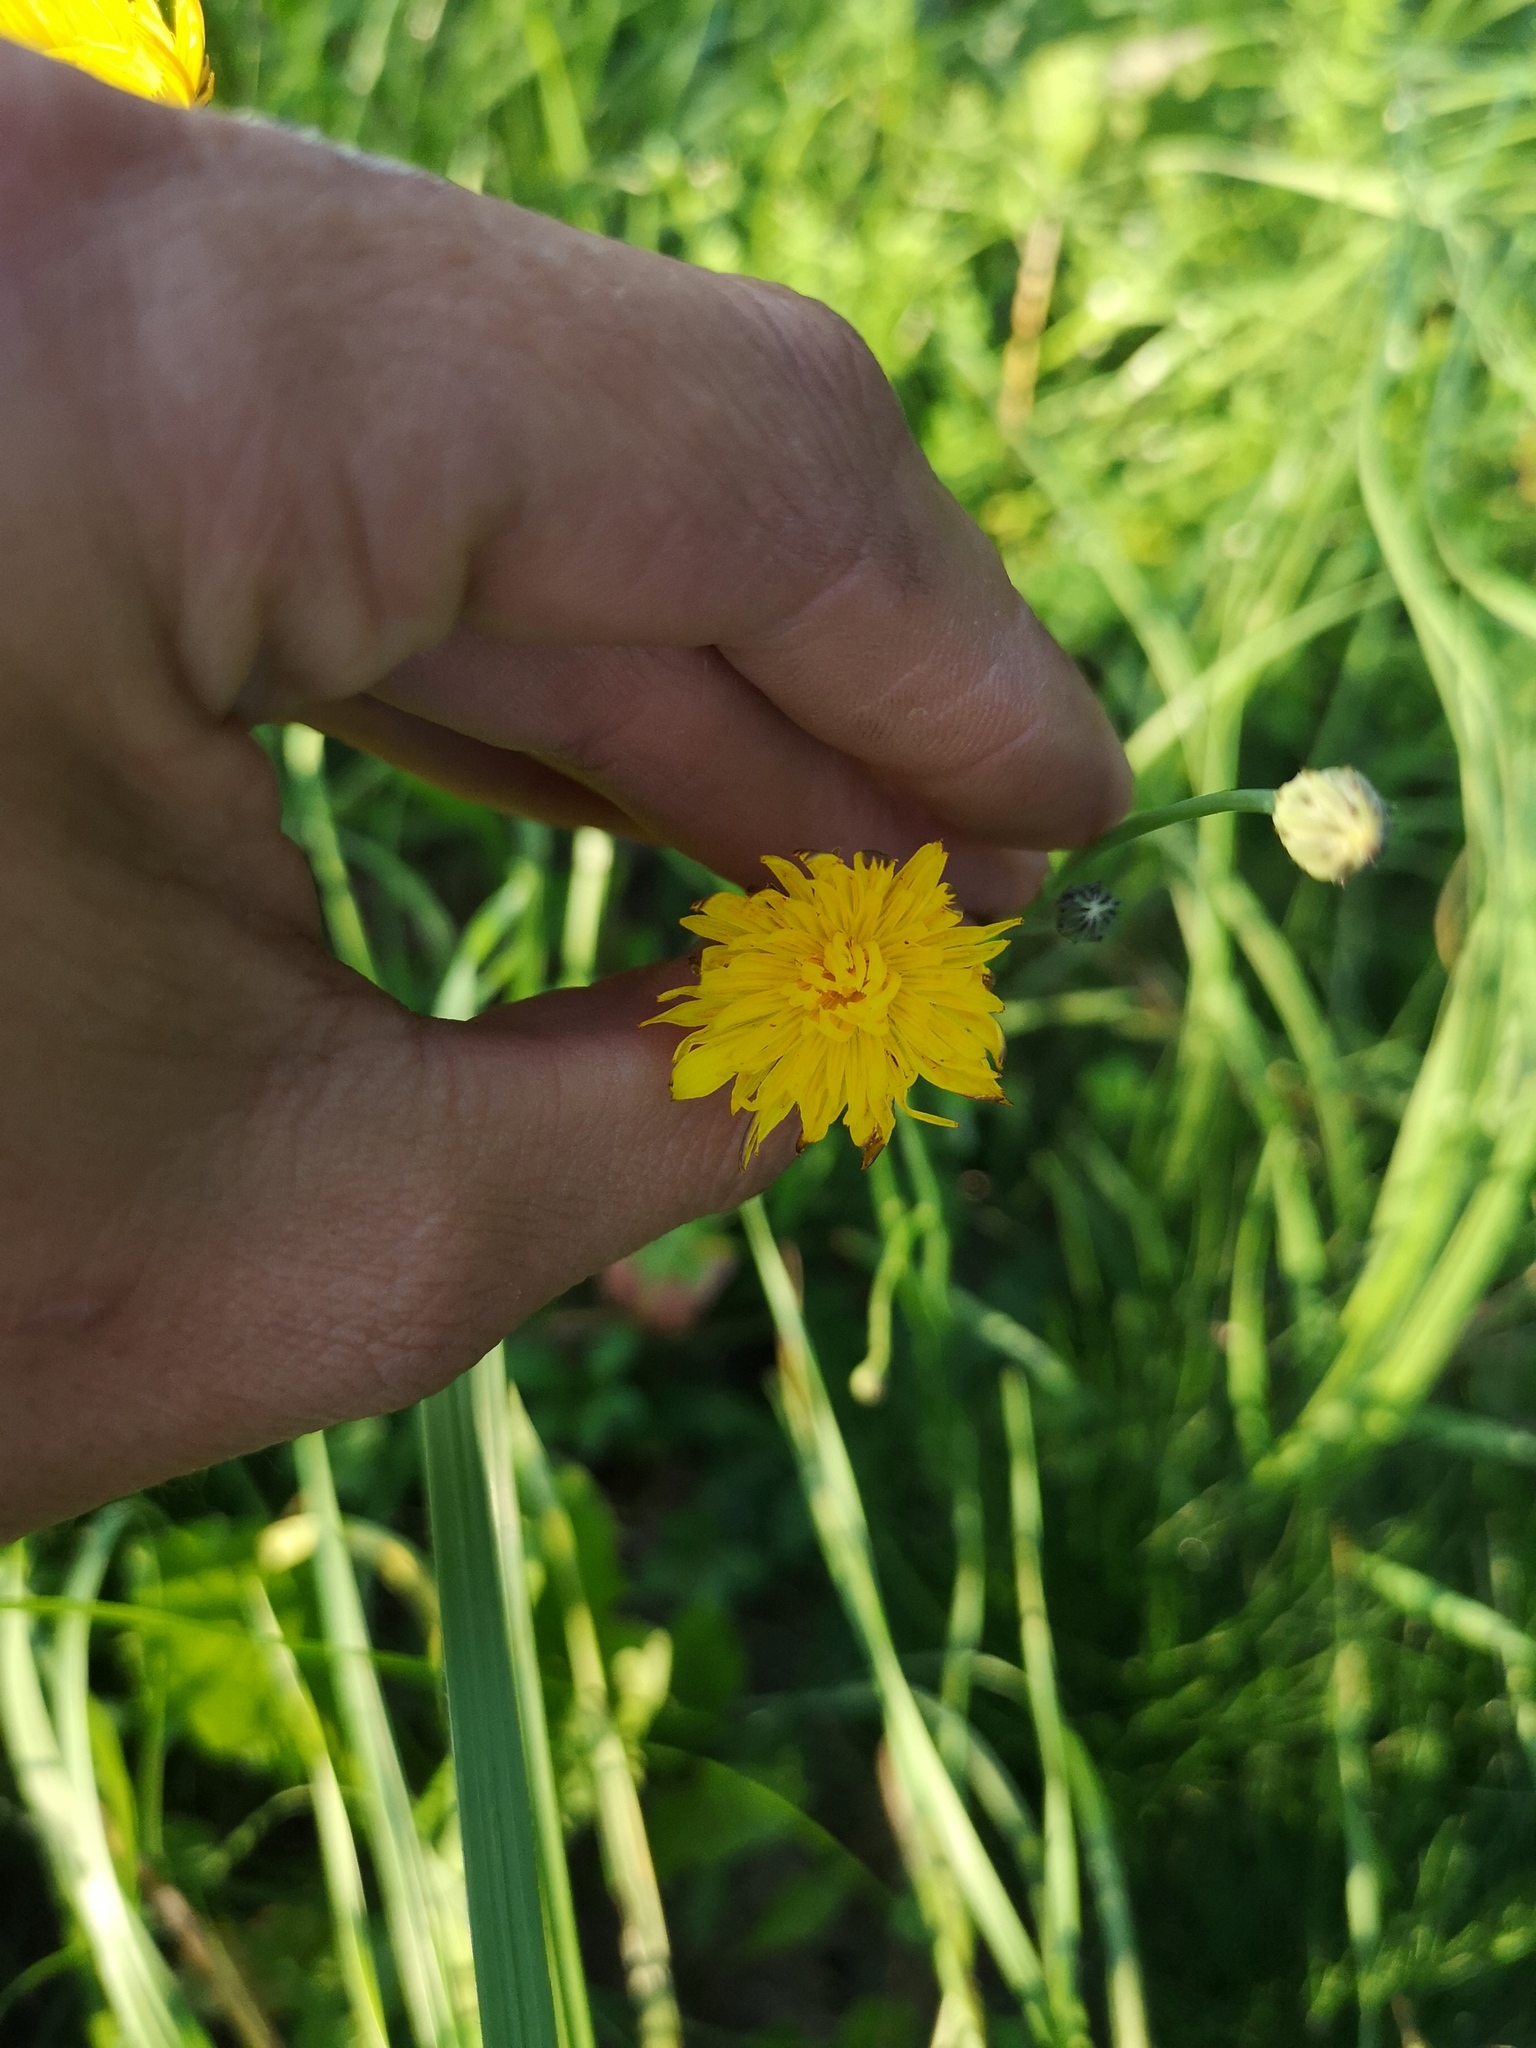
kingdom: Plantae
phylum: Tracheophyta
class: Magnoliopsida
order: Asterales
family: Asteraceae
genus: Hypochaeris
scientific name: Hypochaeris radicata
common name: Flatweed
